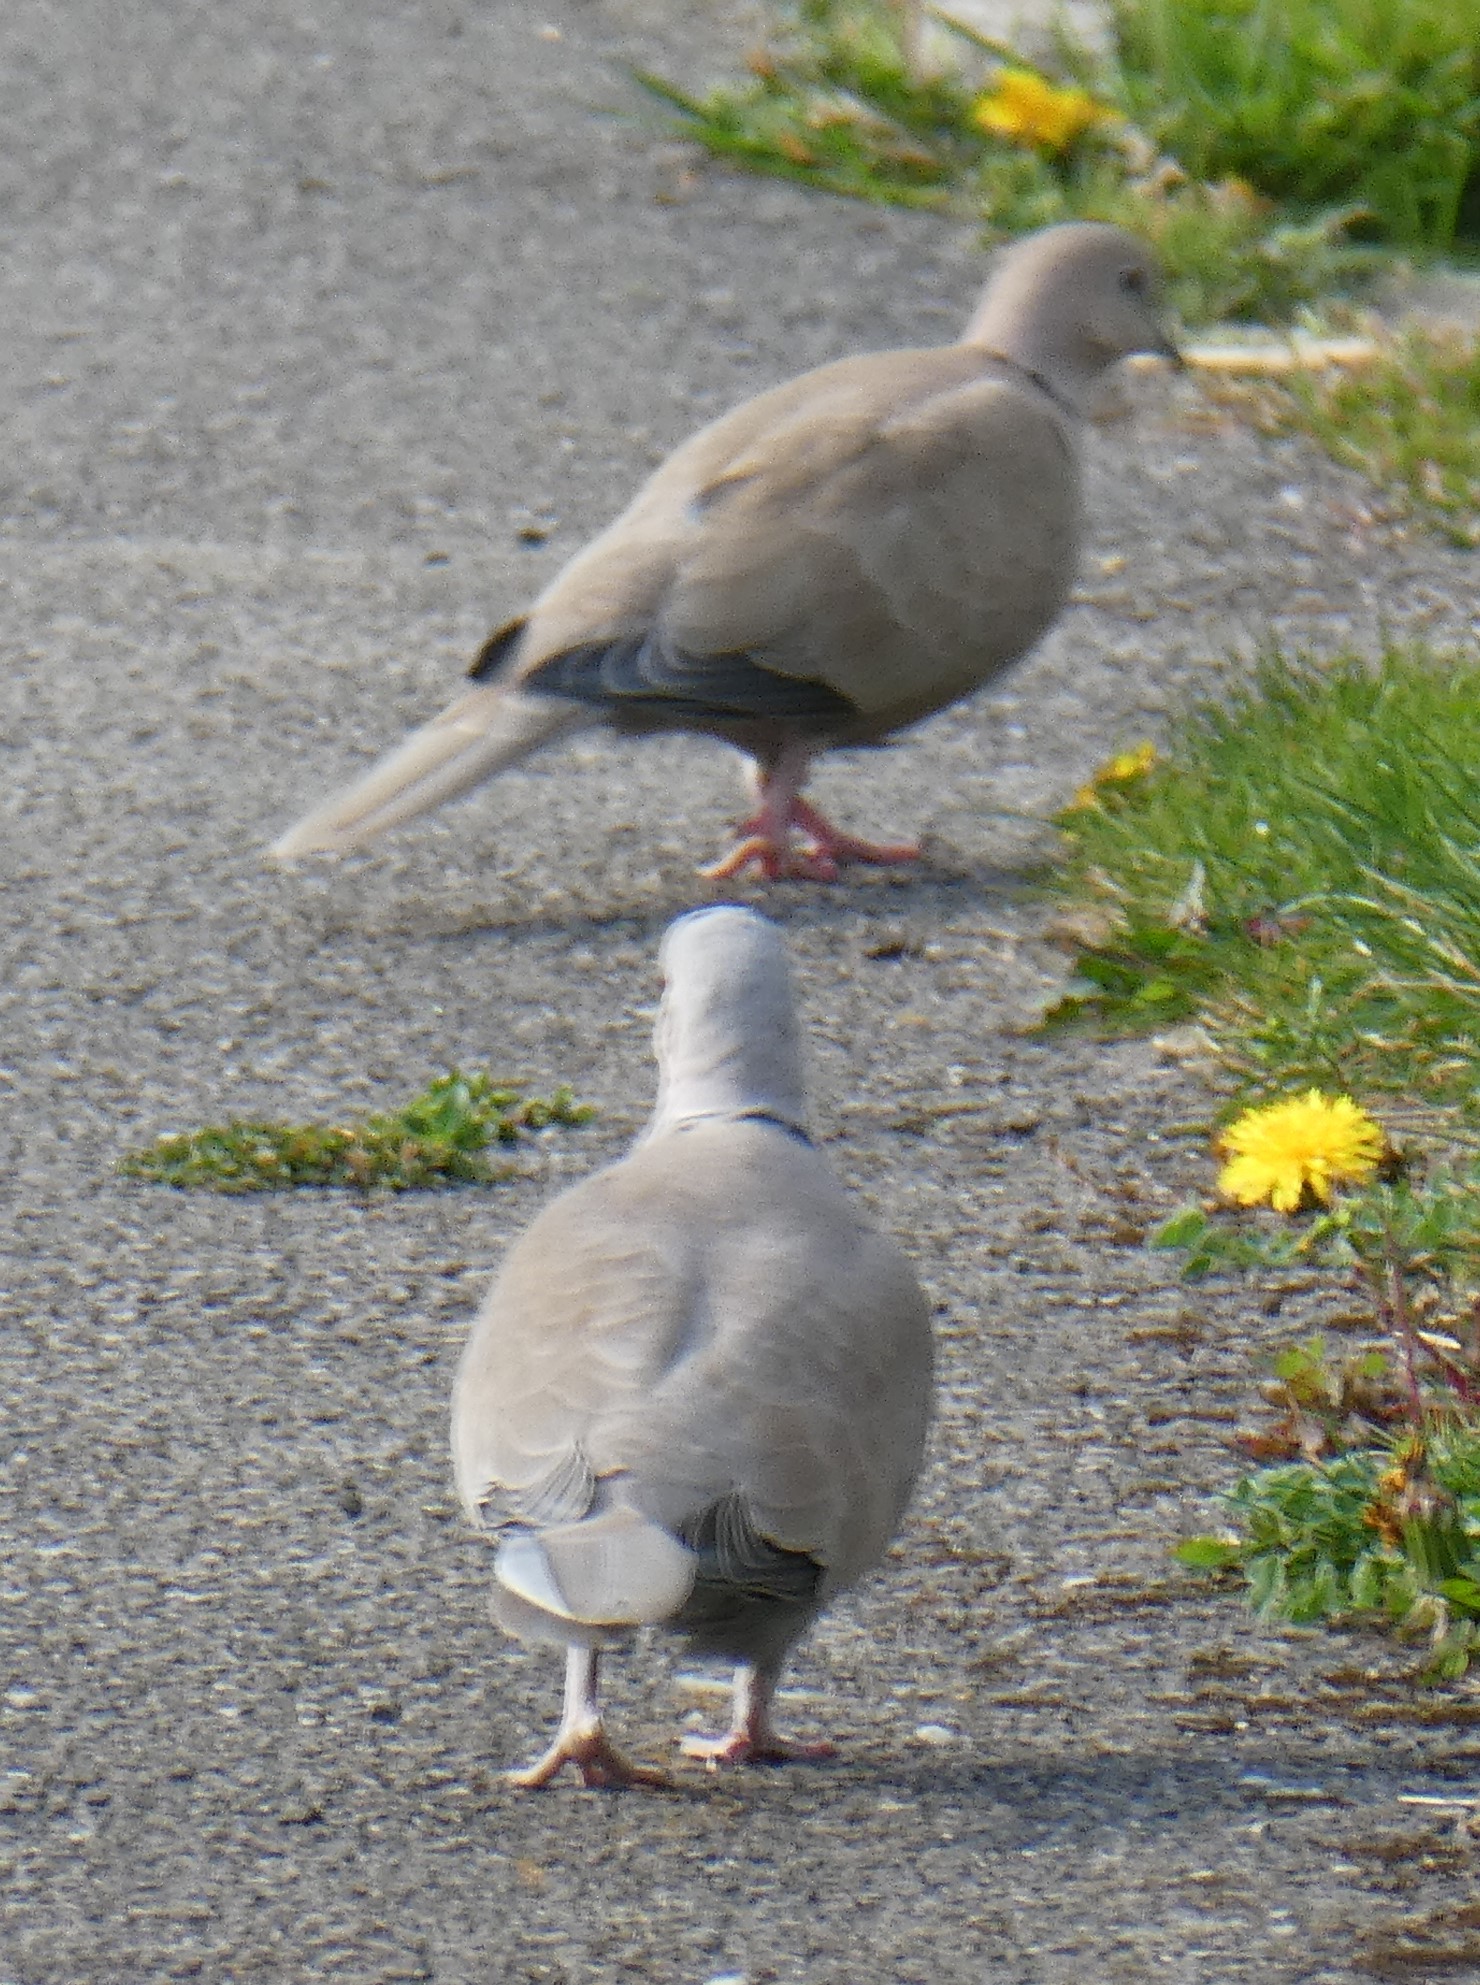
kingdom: Animalia
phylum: Chordata
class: Aves
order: Columbiformes
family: Columbidae
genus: Streptopelia
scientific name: Streptopelia decaocto
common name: Eurasian collared dove
